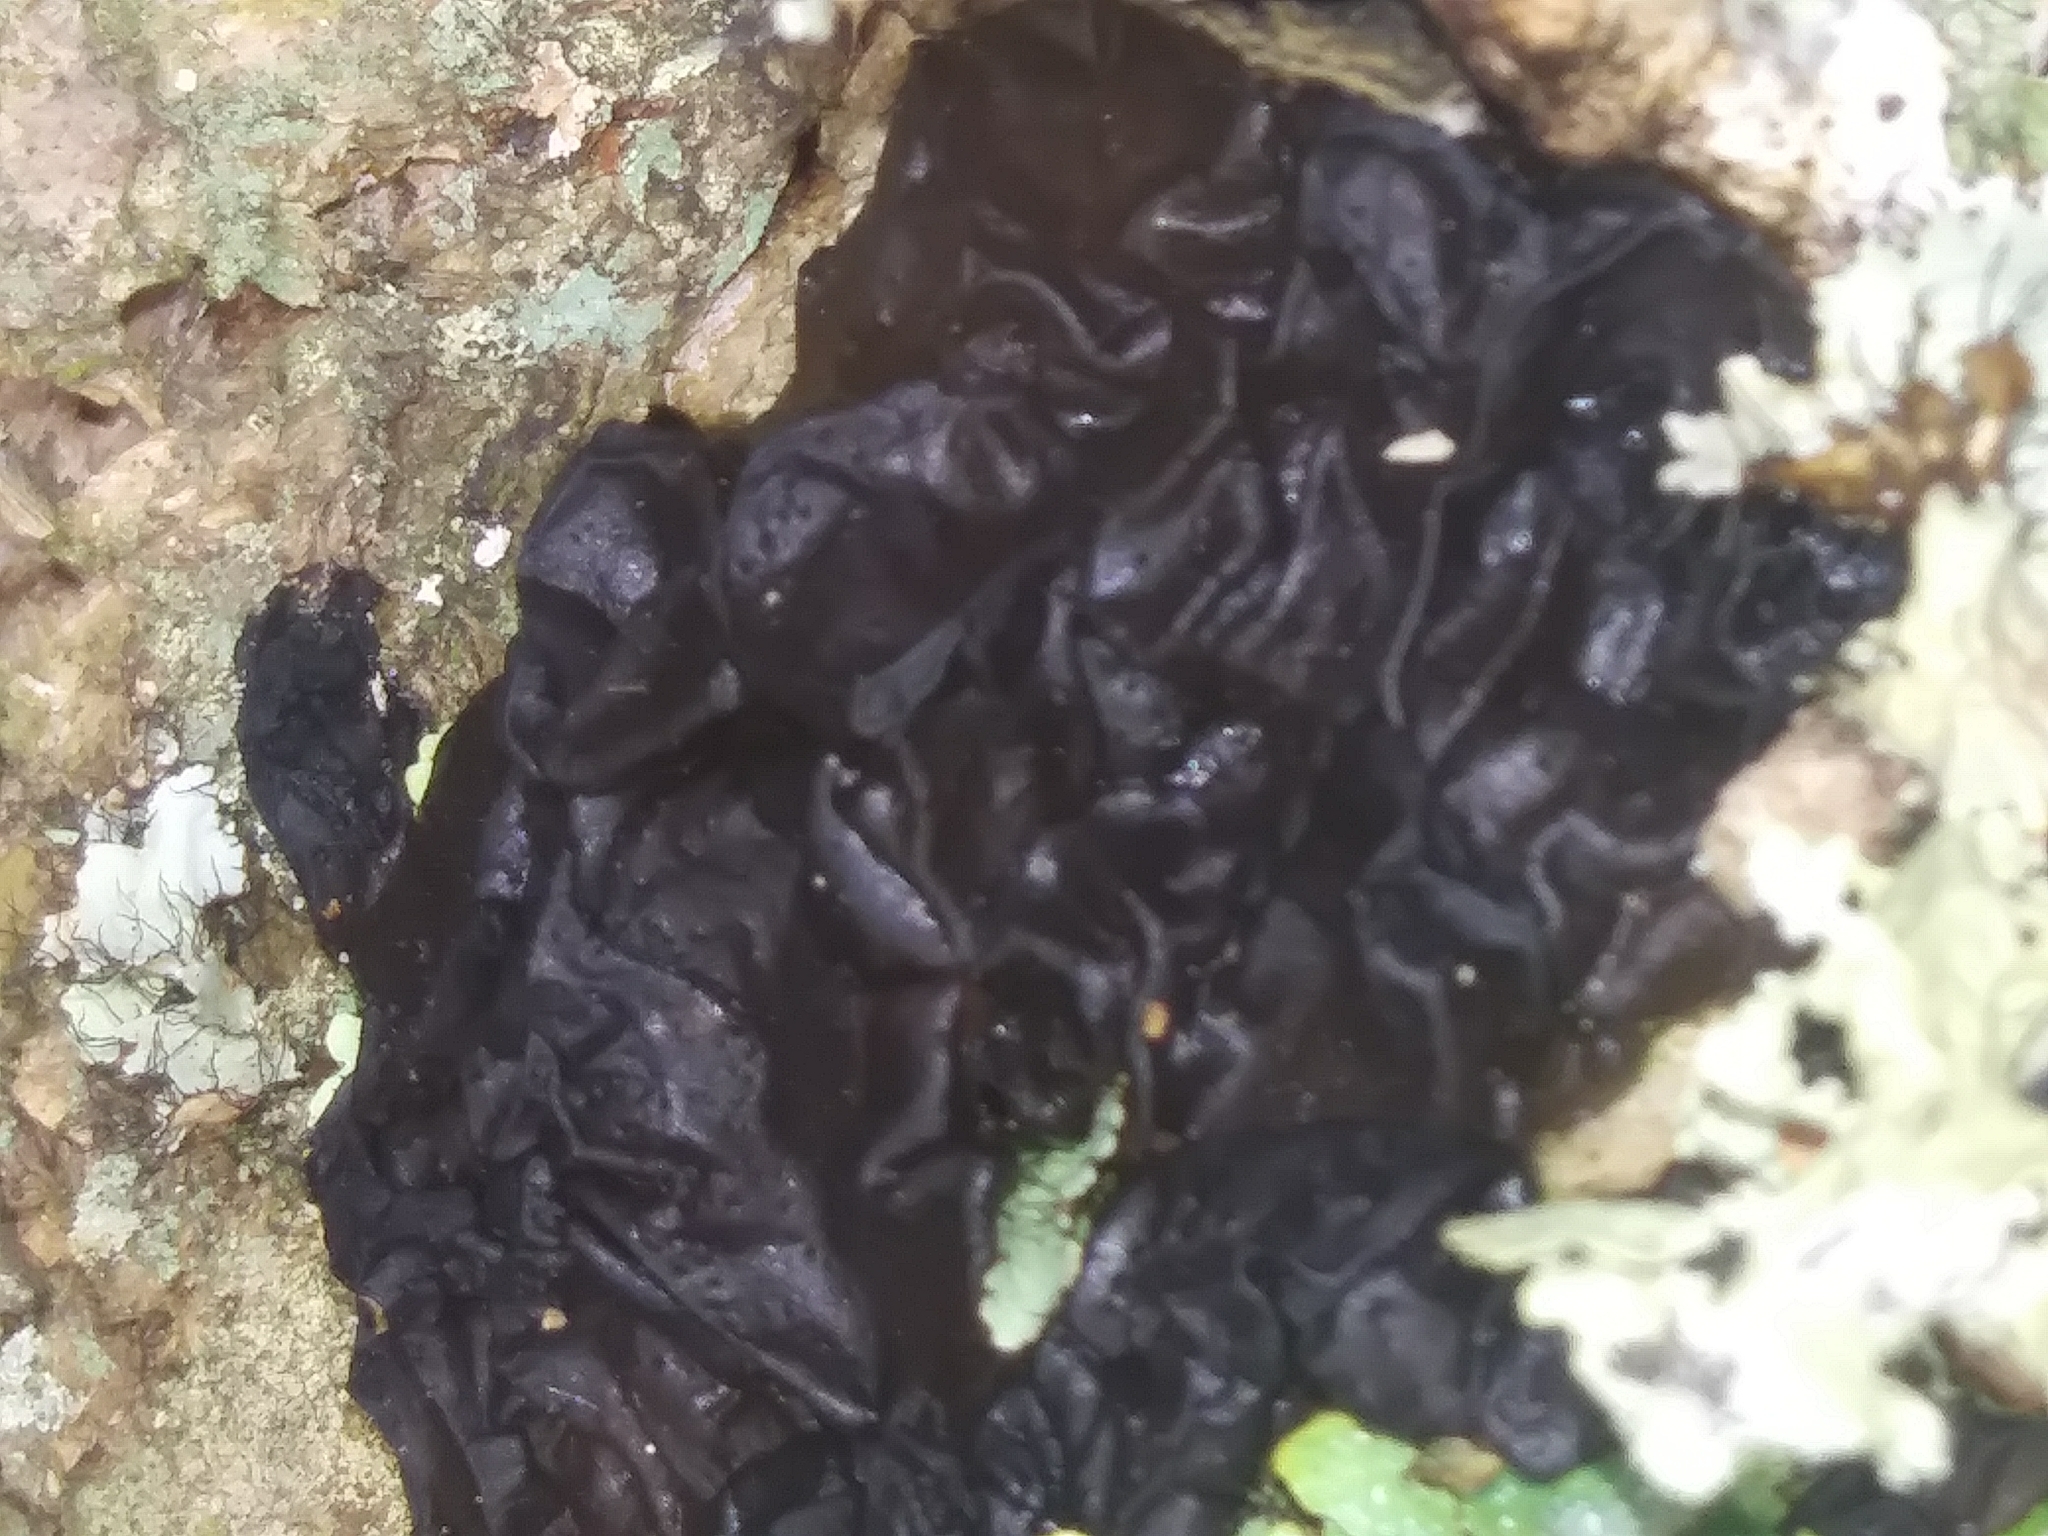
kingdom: Fungi
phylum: Basidiomycota
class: Agaricomycetes
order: Auriculariales
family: Auriculariaceae
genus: Exidia
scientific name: Exidia glandulosa
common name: Witches' butter
